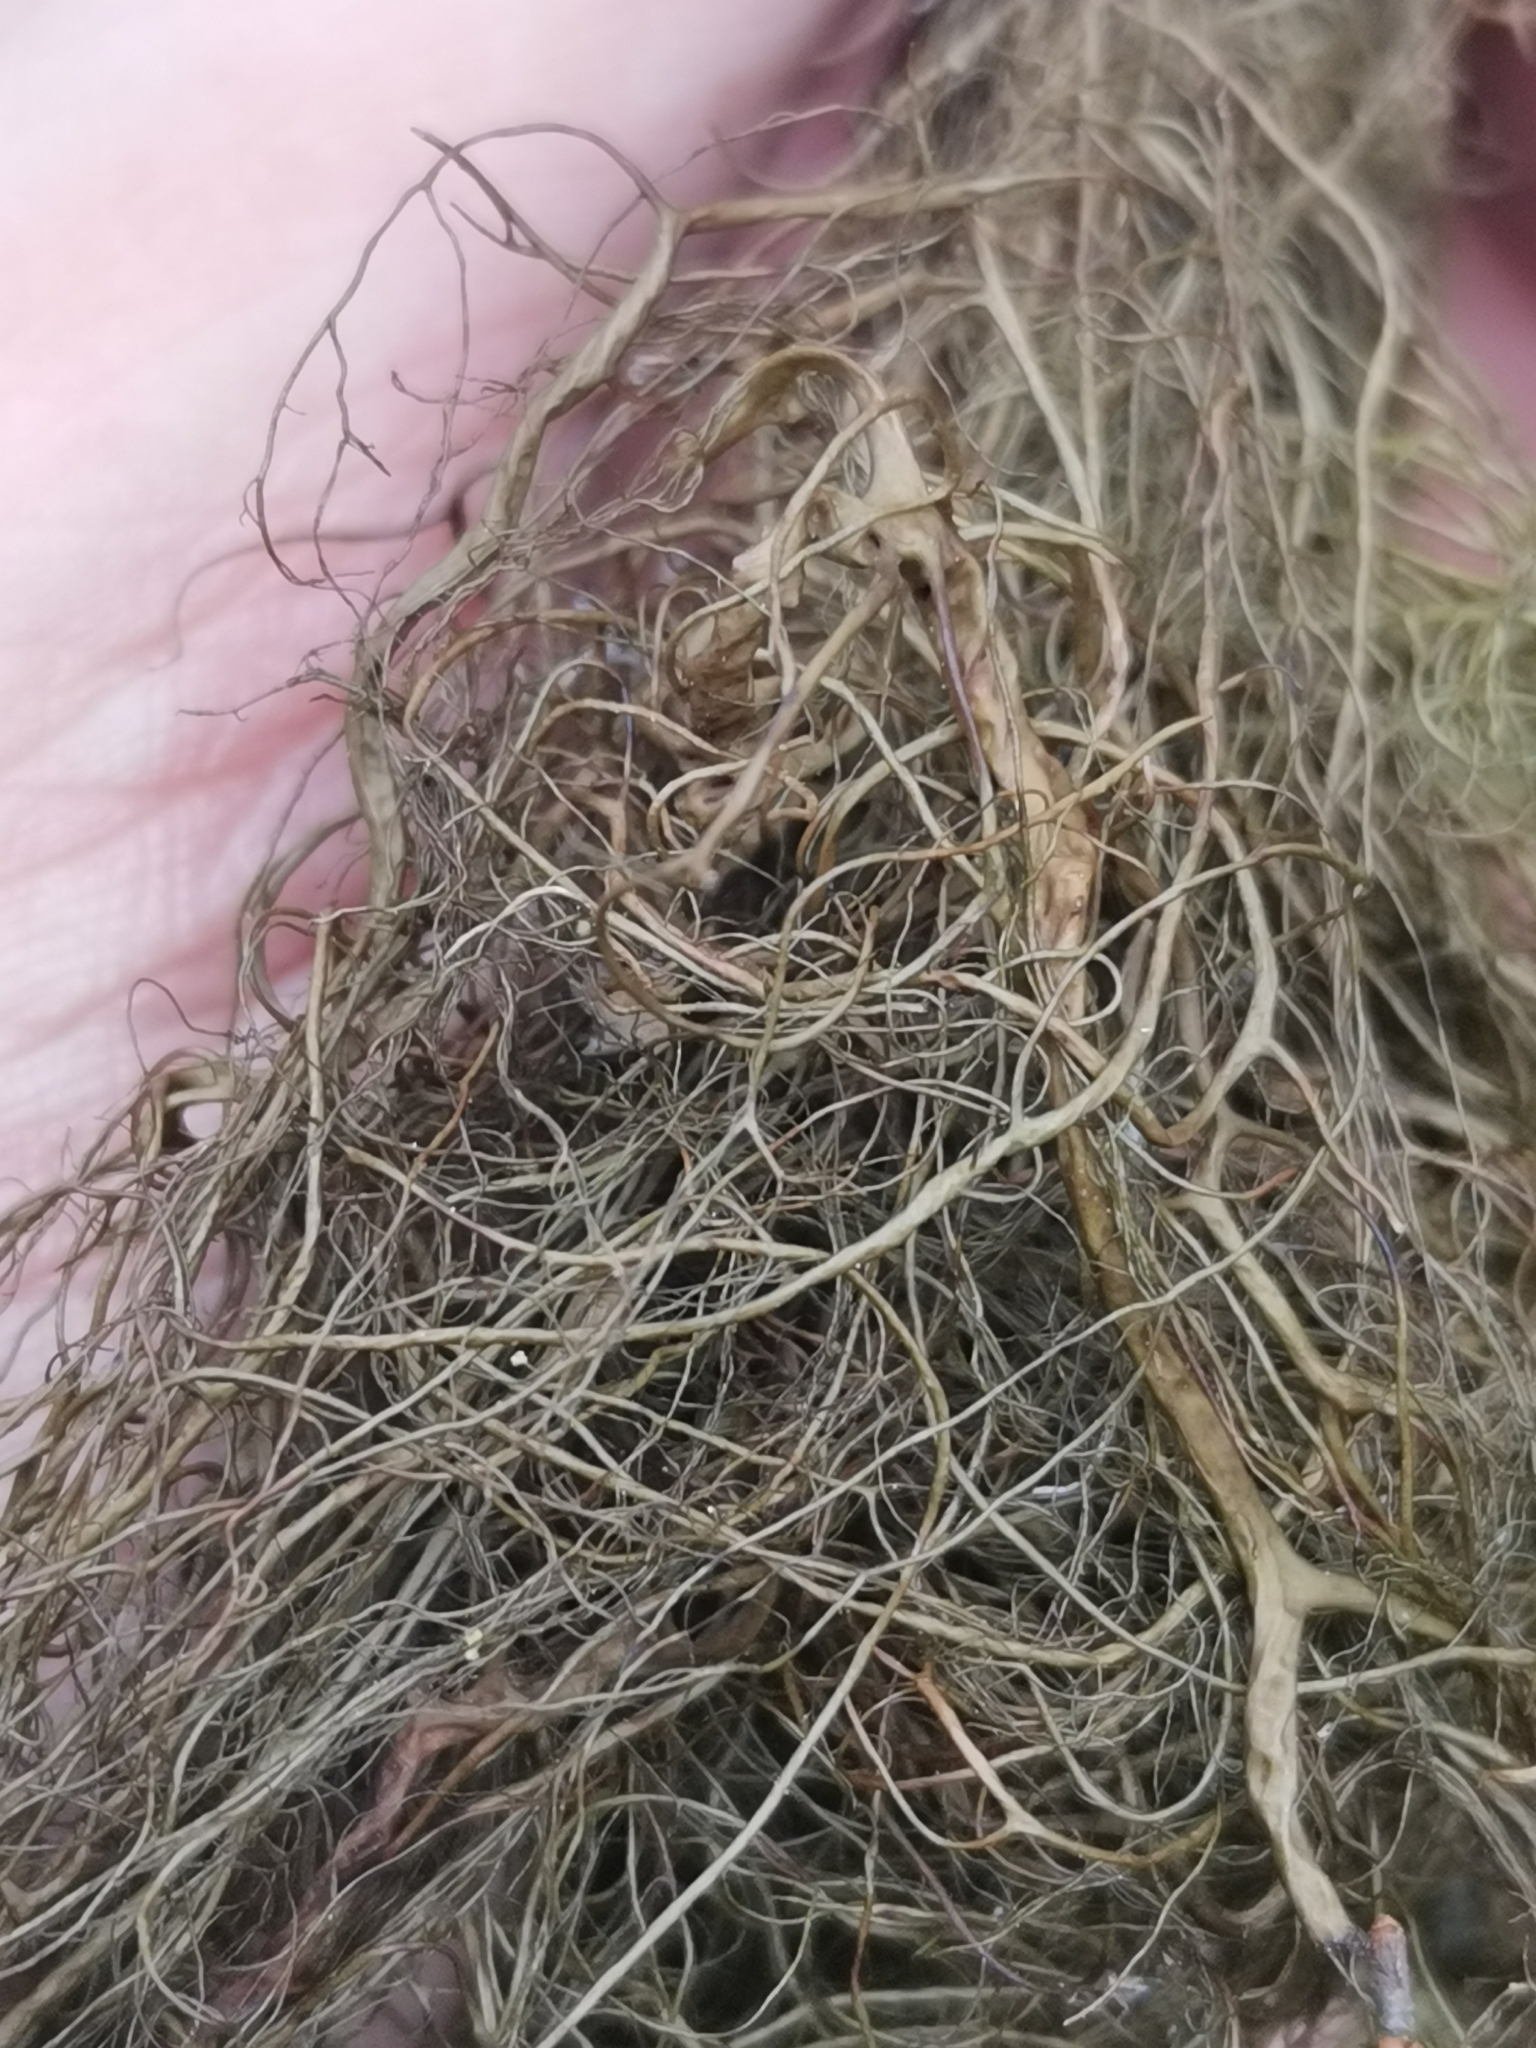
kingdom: Fungi
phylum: Ascomycota
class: Lecanoromycetes
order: Lecanorales
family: Parmeliaceae
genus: Bryoria
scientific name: Bryoria fuscescens
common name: Pale-footed horsehair lichen
